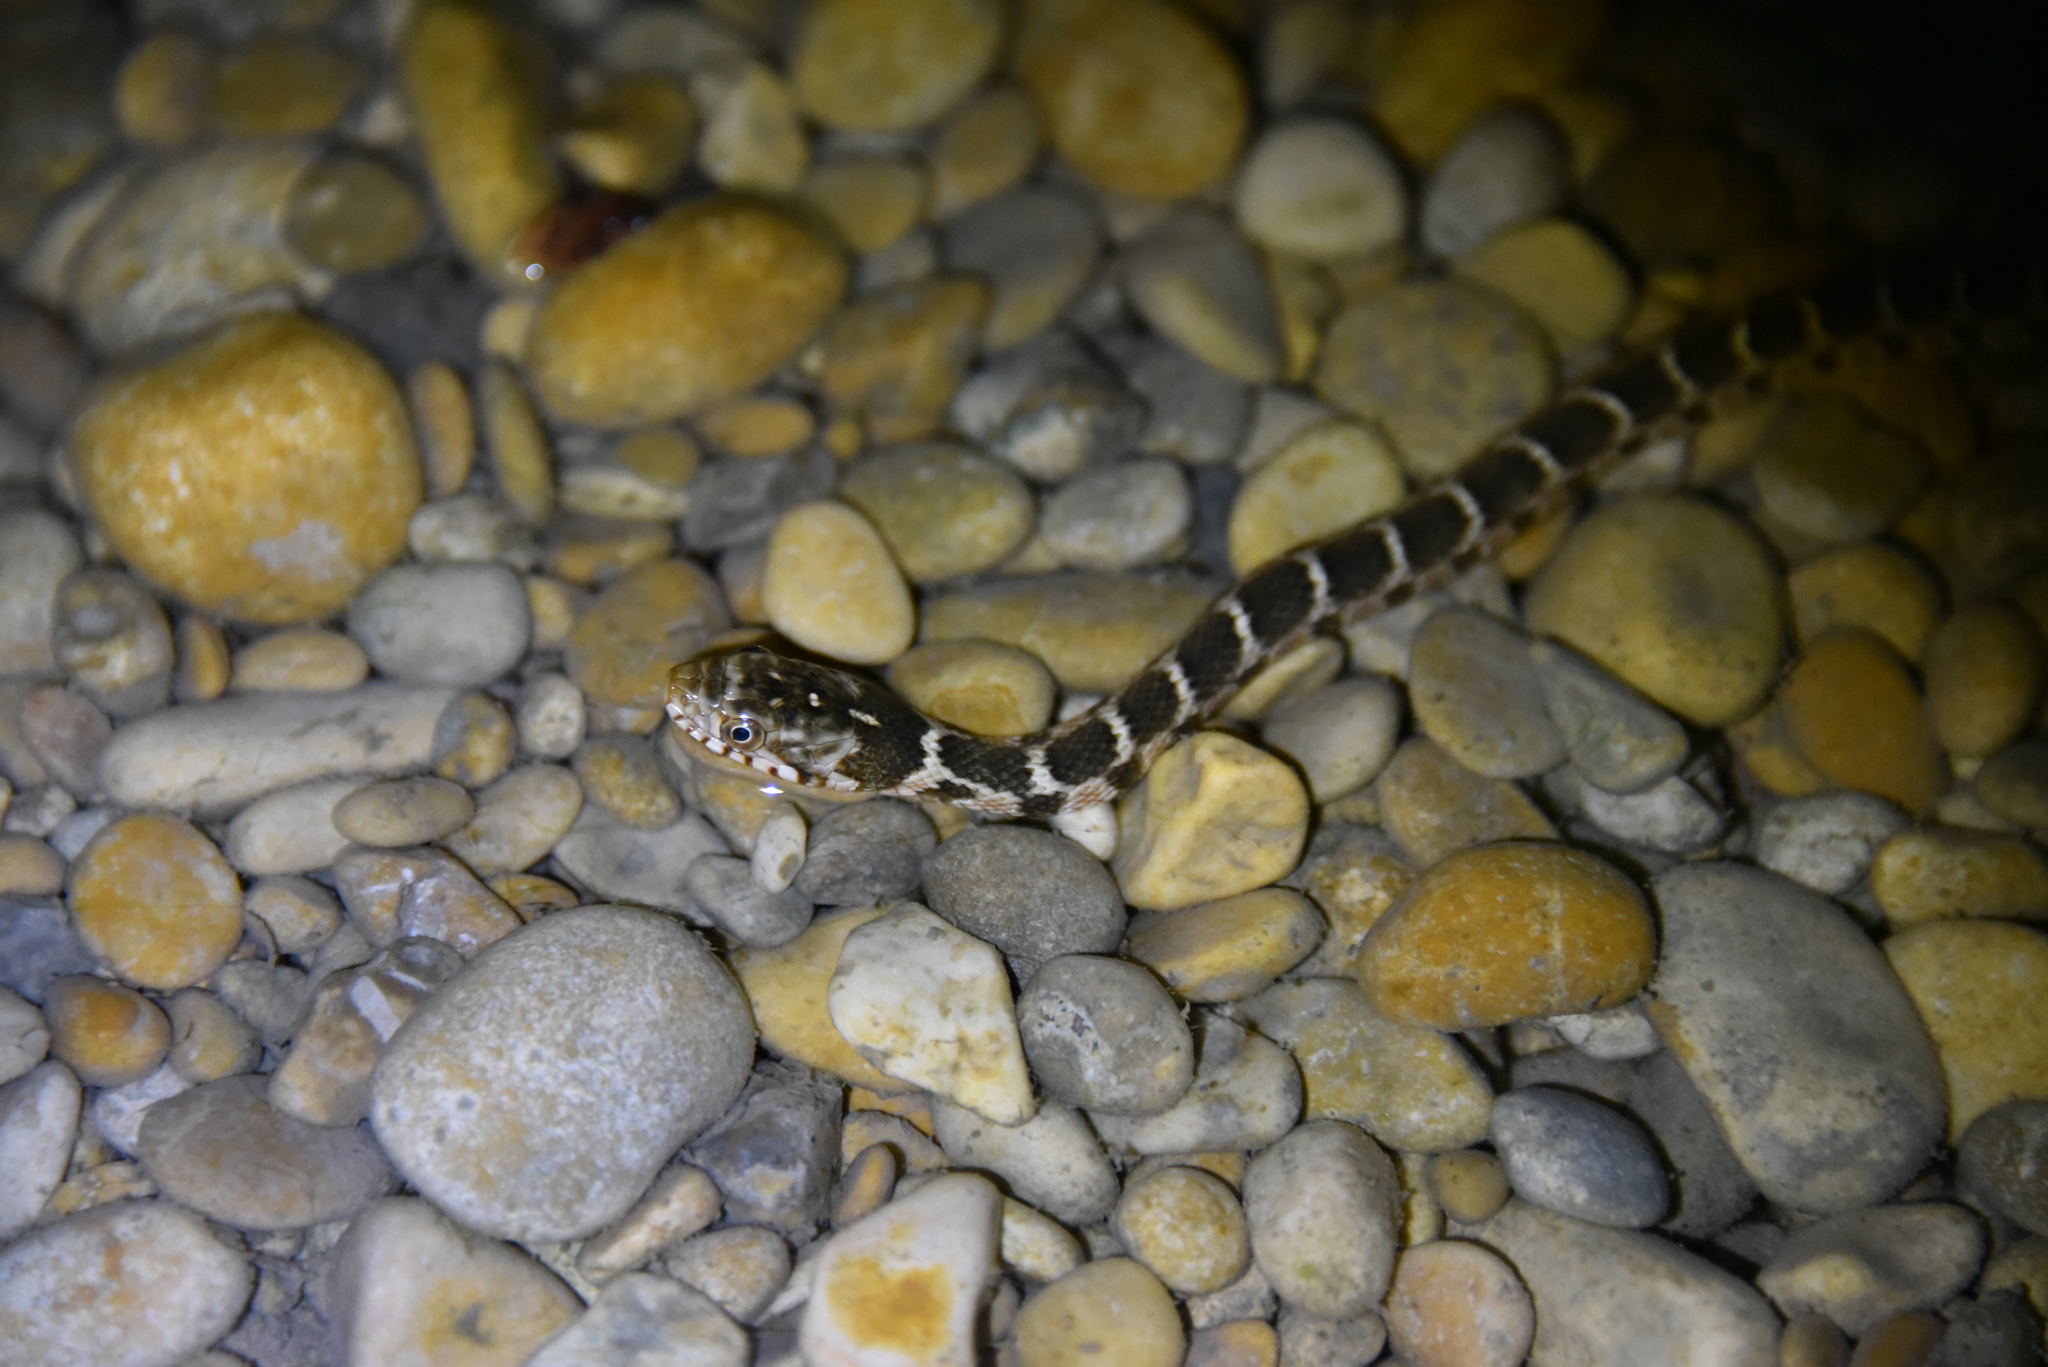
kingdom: Animalia
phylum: Chordata
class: Squamata
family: Colubridae
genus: Nerodia
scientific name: Nerodia erythrogaster
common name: Plainbelly water snake
